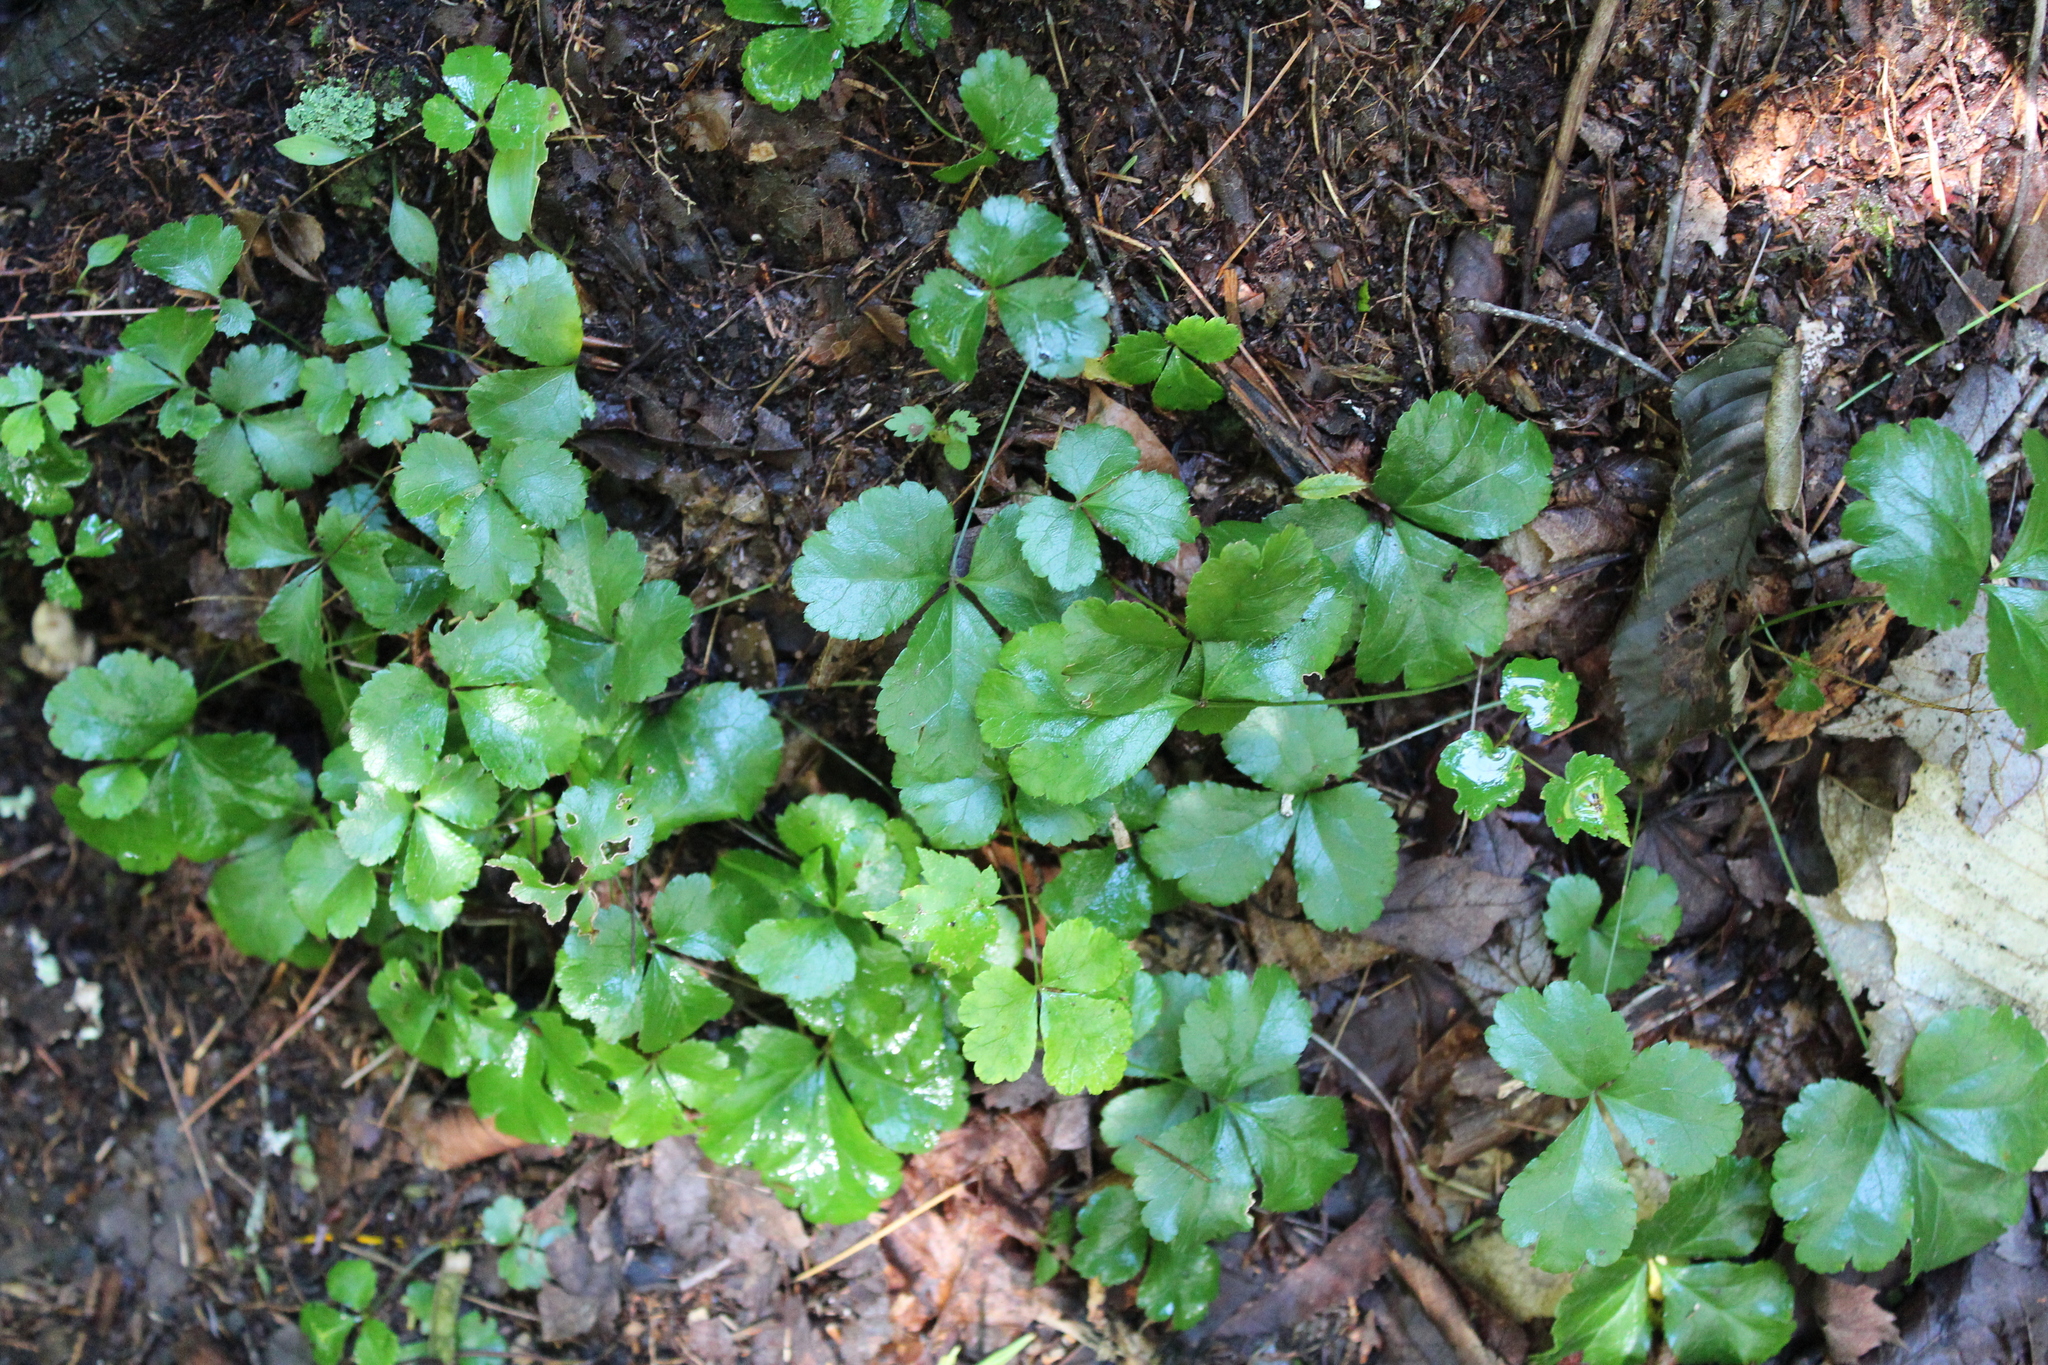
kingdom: Plantae
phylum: Tracheophyta
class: Magnoliopsida
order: Ranunculales
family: Ranunculaceae
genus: Coptis
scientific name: Coptis trifolia
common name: Canker-root
